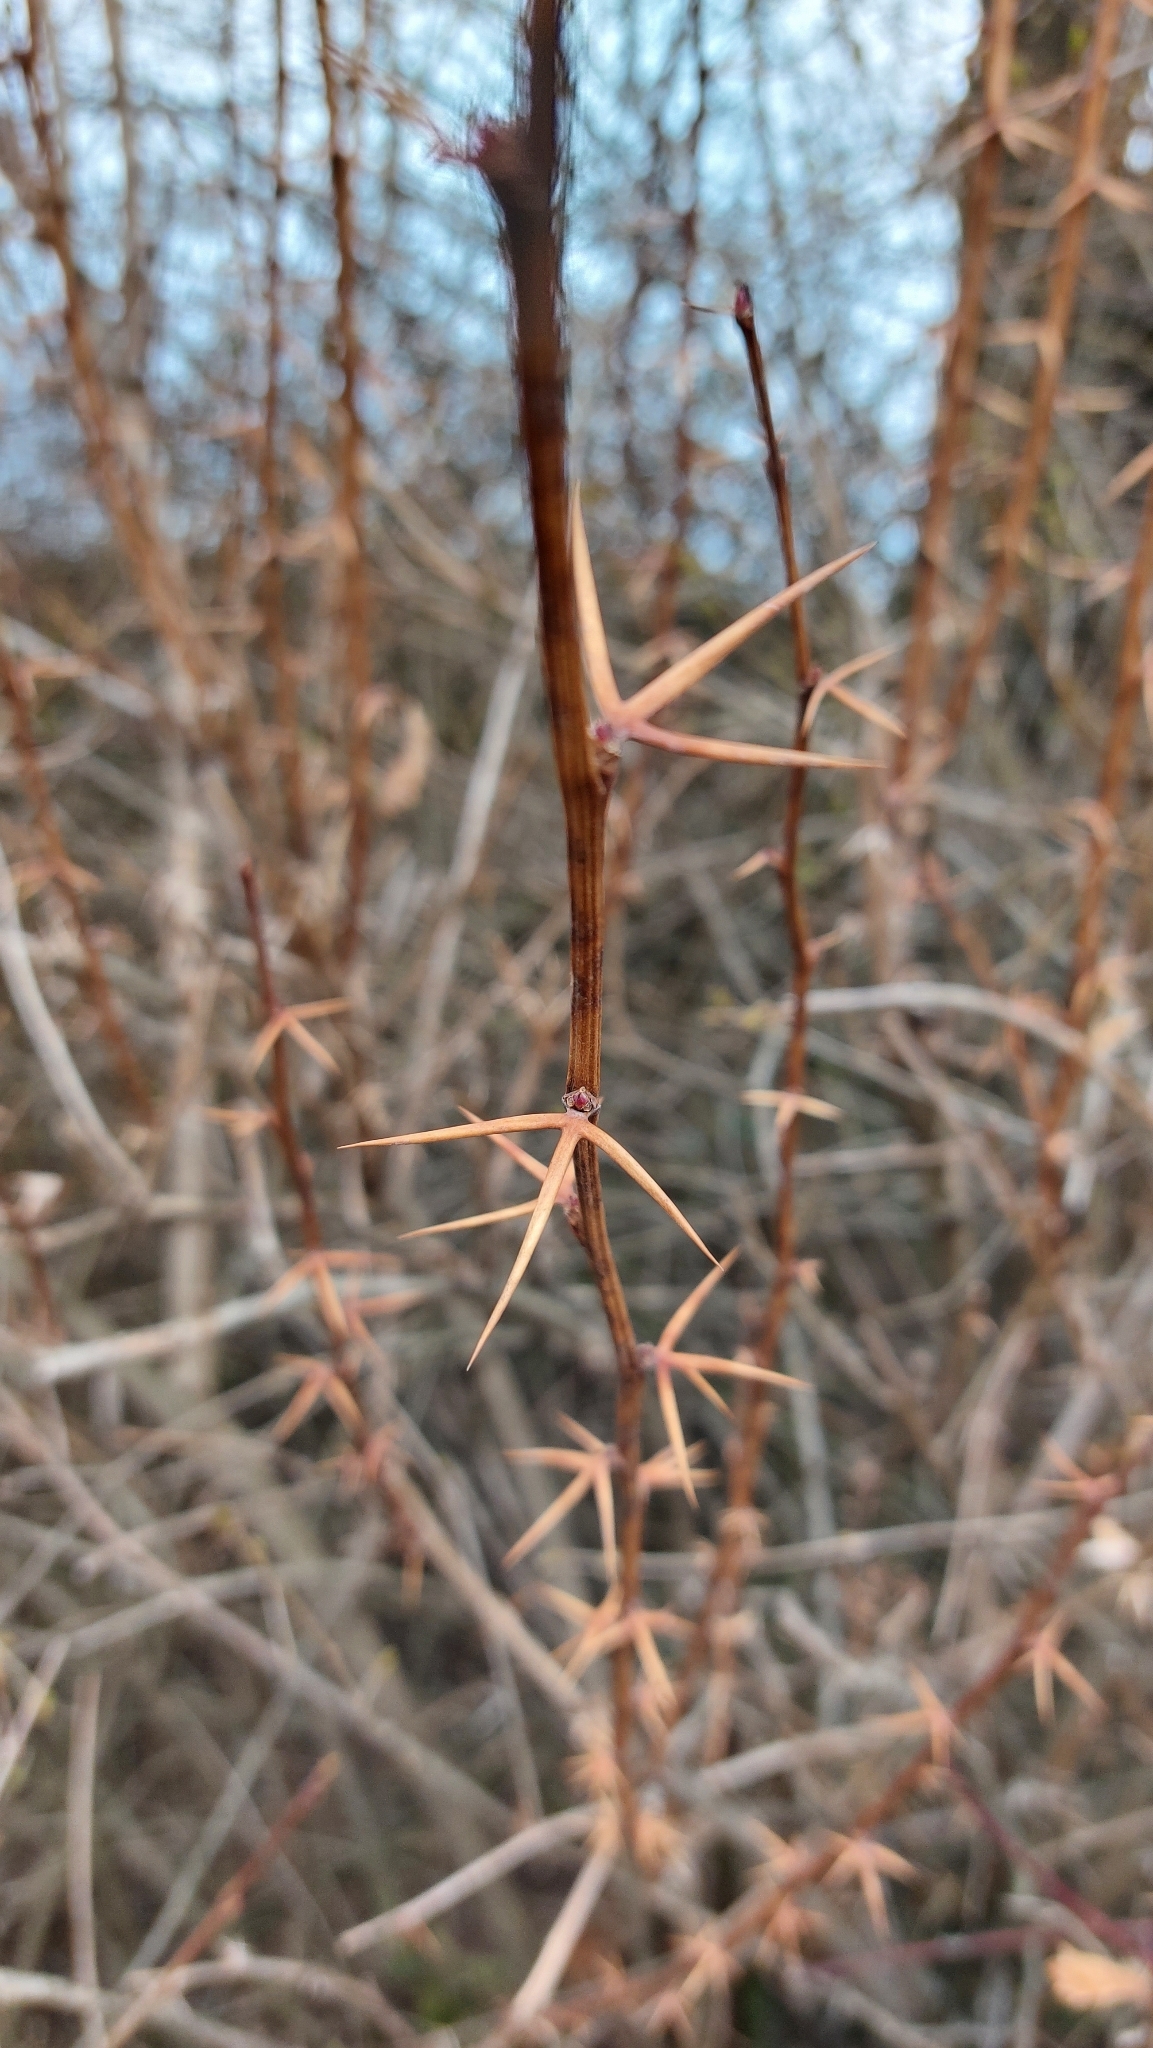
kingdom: Plantae
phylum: Tracheophyta
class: Magnoliopsida
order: Ranunculales
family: Berberidaceae
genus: Berberis
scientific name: Berberis vulgaris
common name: Barberry
